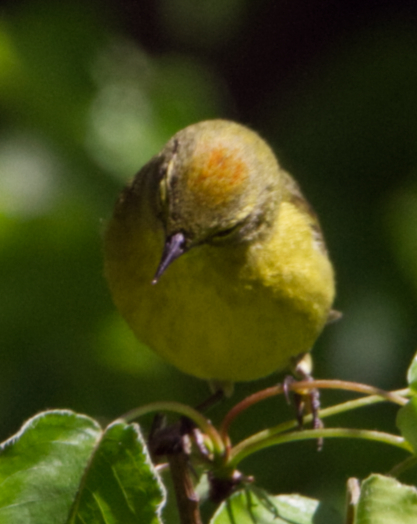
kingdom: Animalia
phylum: Chordata
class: Aves
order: Passeriformes
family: Parulidae
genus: Leiothlypis
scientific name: Leiothlypis celata
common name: Orange-crowned warbler
